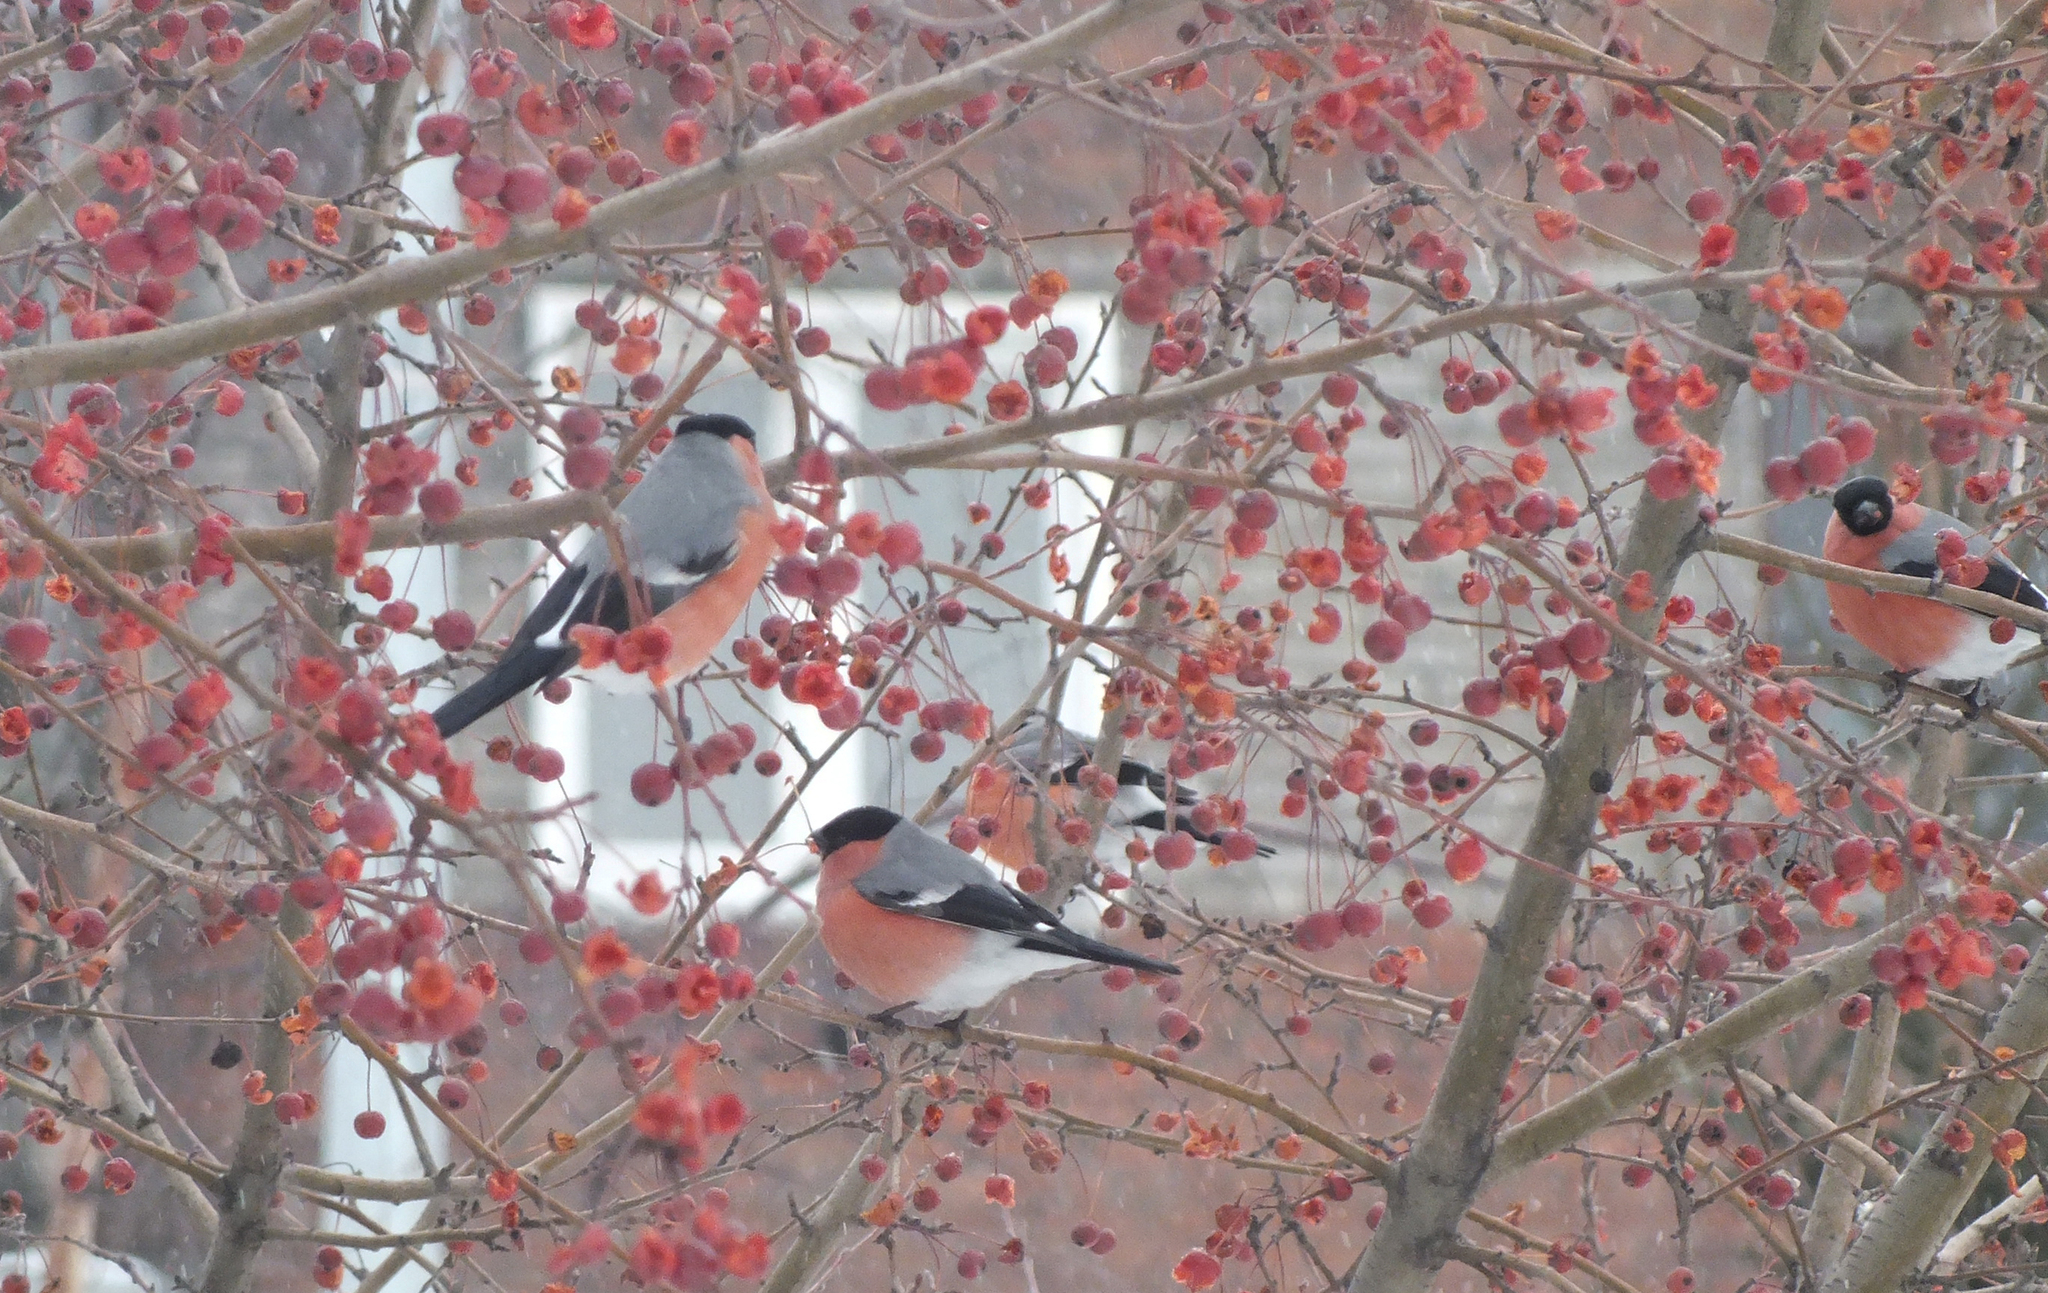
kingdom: Animalia
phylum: Chordata
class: Aves
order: Passeriformes
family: Fringillidae
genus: Pyrrhula
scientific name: Pyrrhula pyrrhula
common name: Eurasian bullfinch
